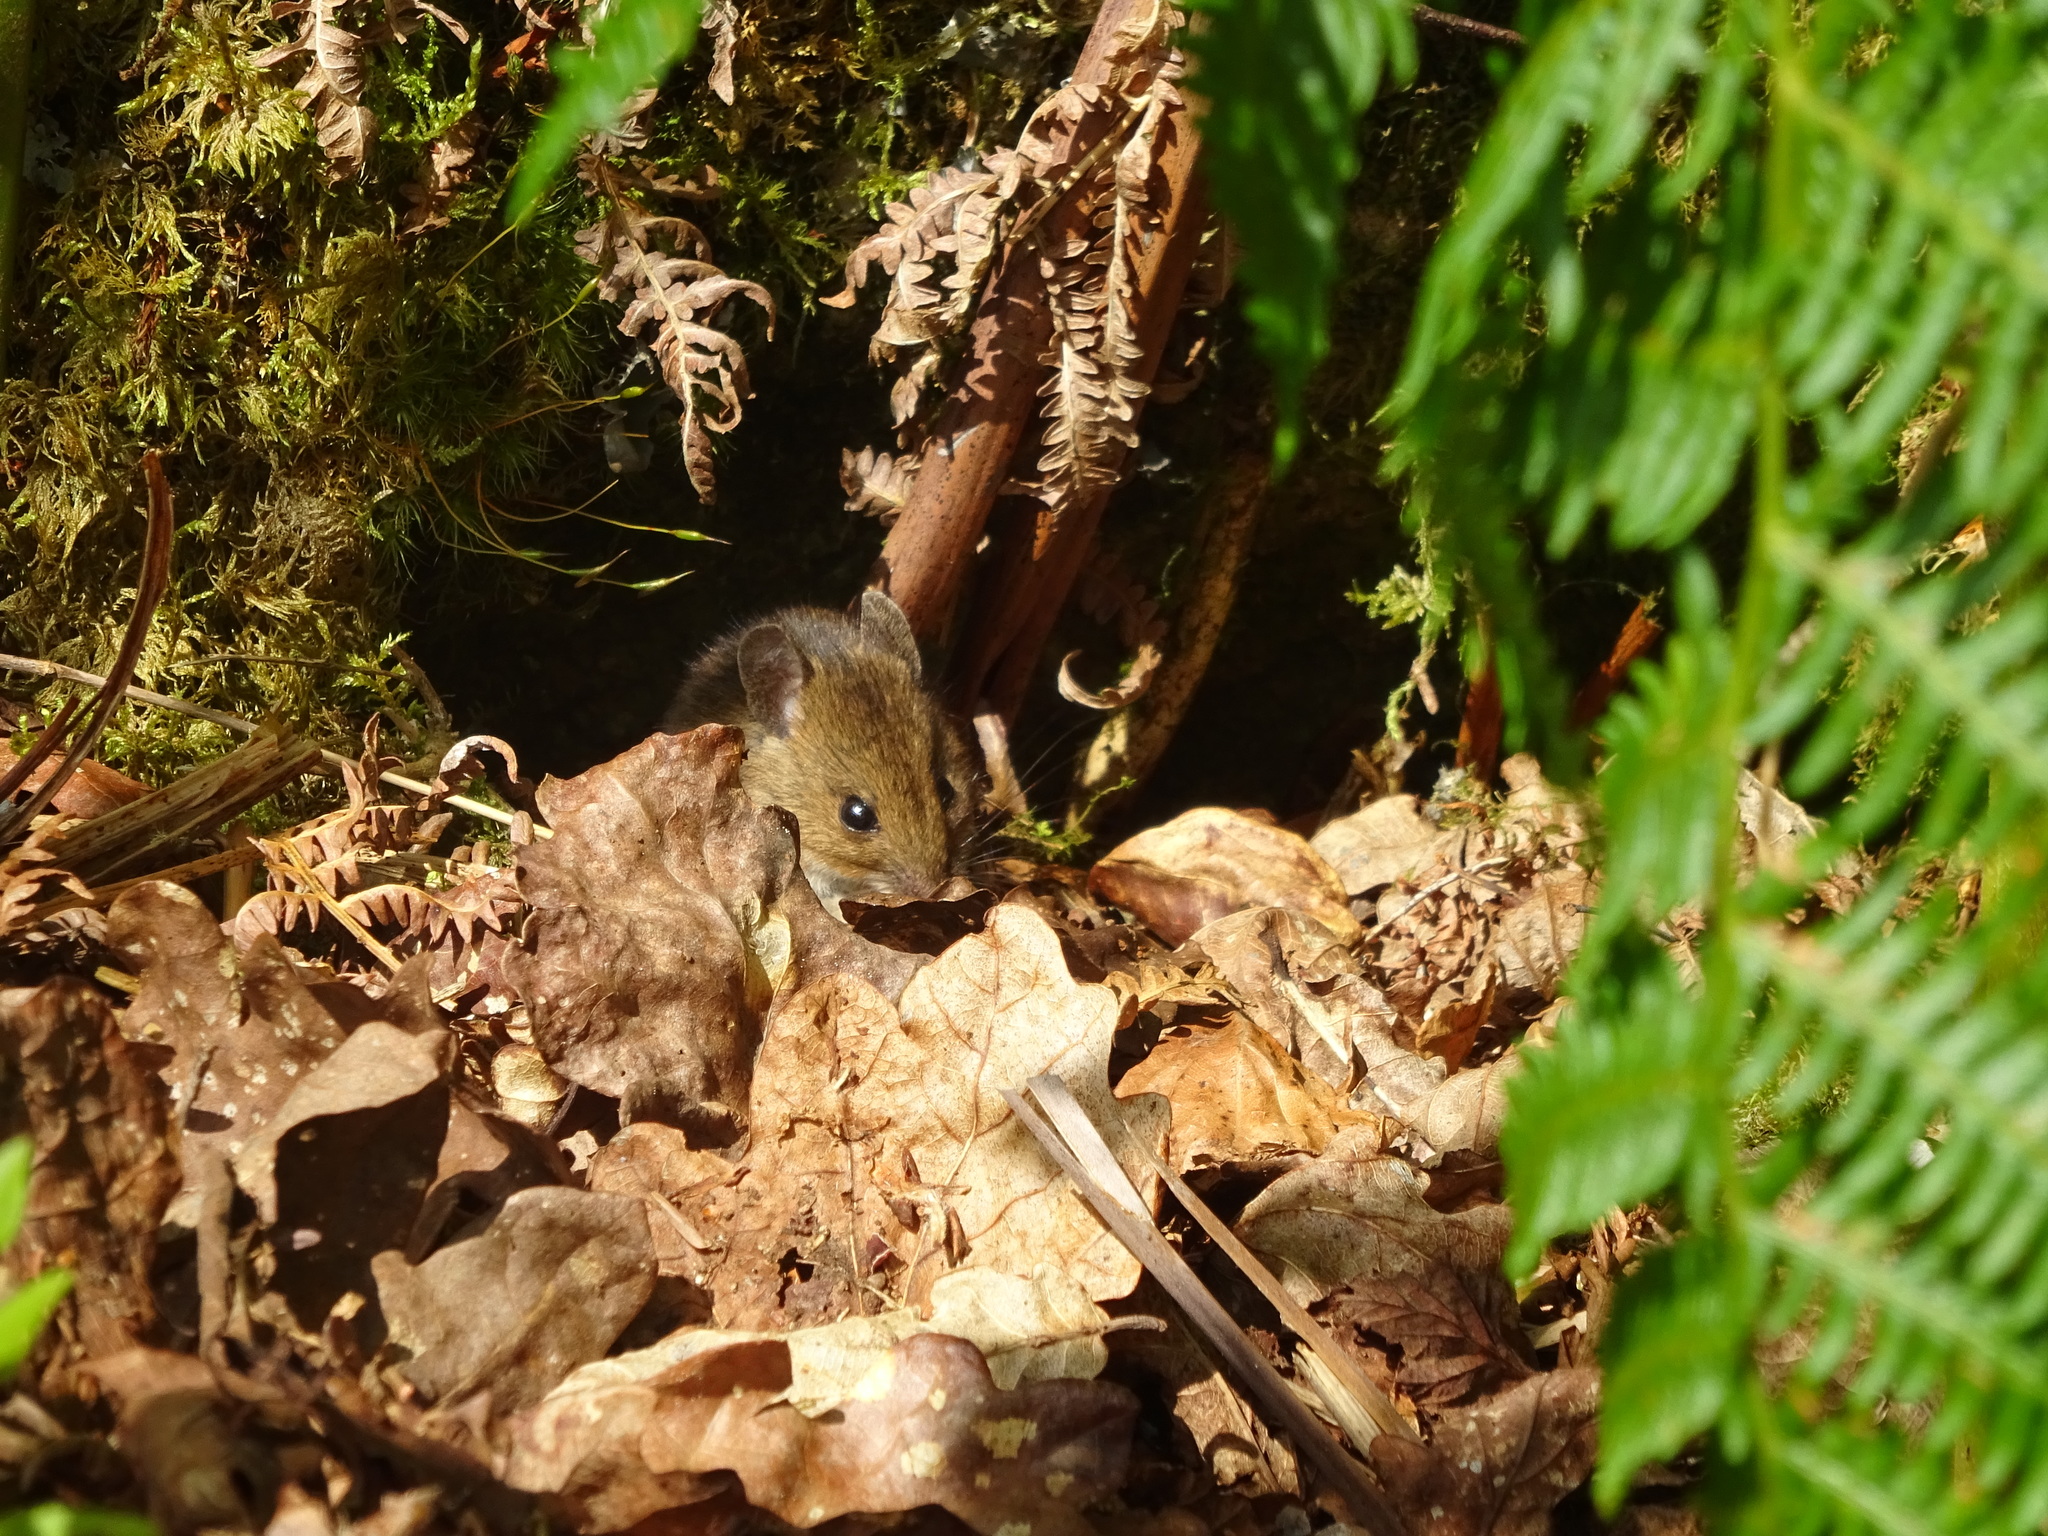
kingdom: Animalia
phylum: Chordata
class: Mammalia
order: Rodentia
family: Muridae
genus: Apodemus
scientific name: Apodemus sylvaticus
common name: Wood mouse
